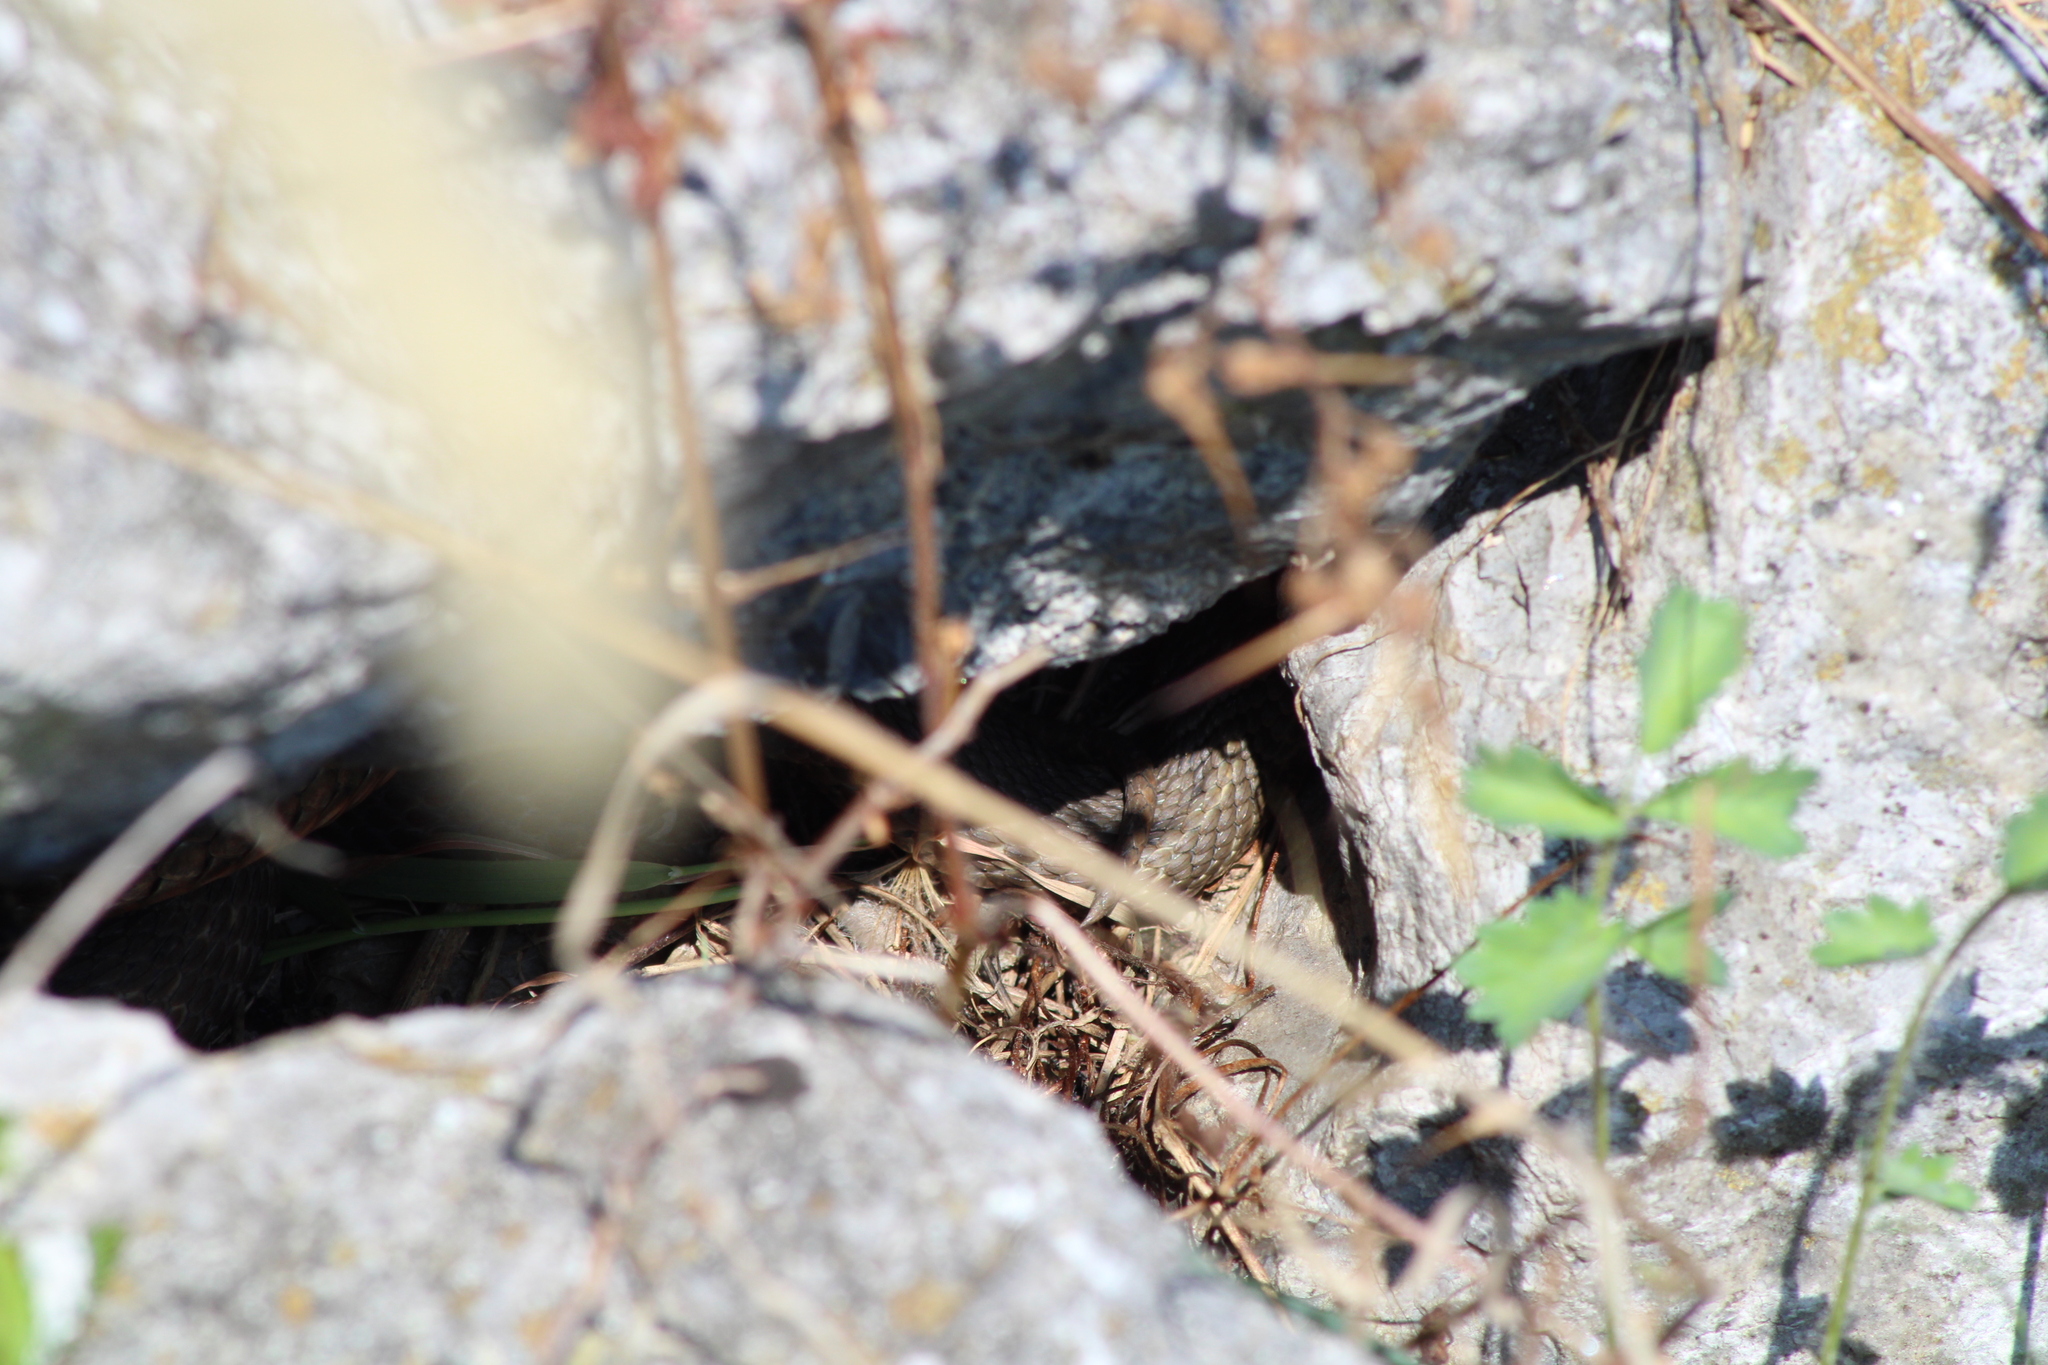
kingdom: Animalia
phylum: Chordata
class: Squamata
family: Colubridae
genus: Natrix
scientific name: Natrix tessellata
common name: Dice snake
